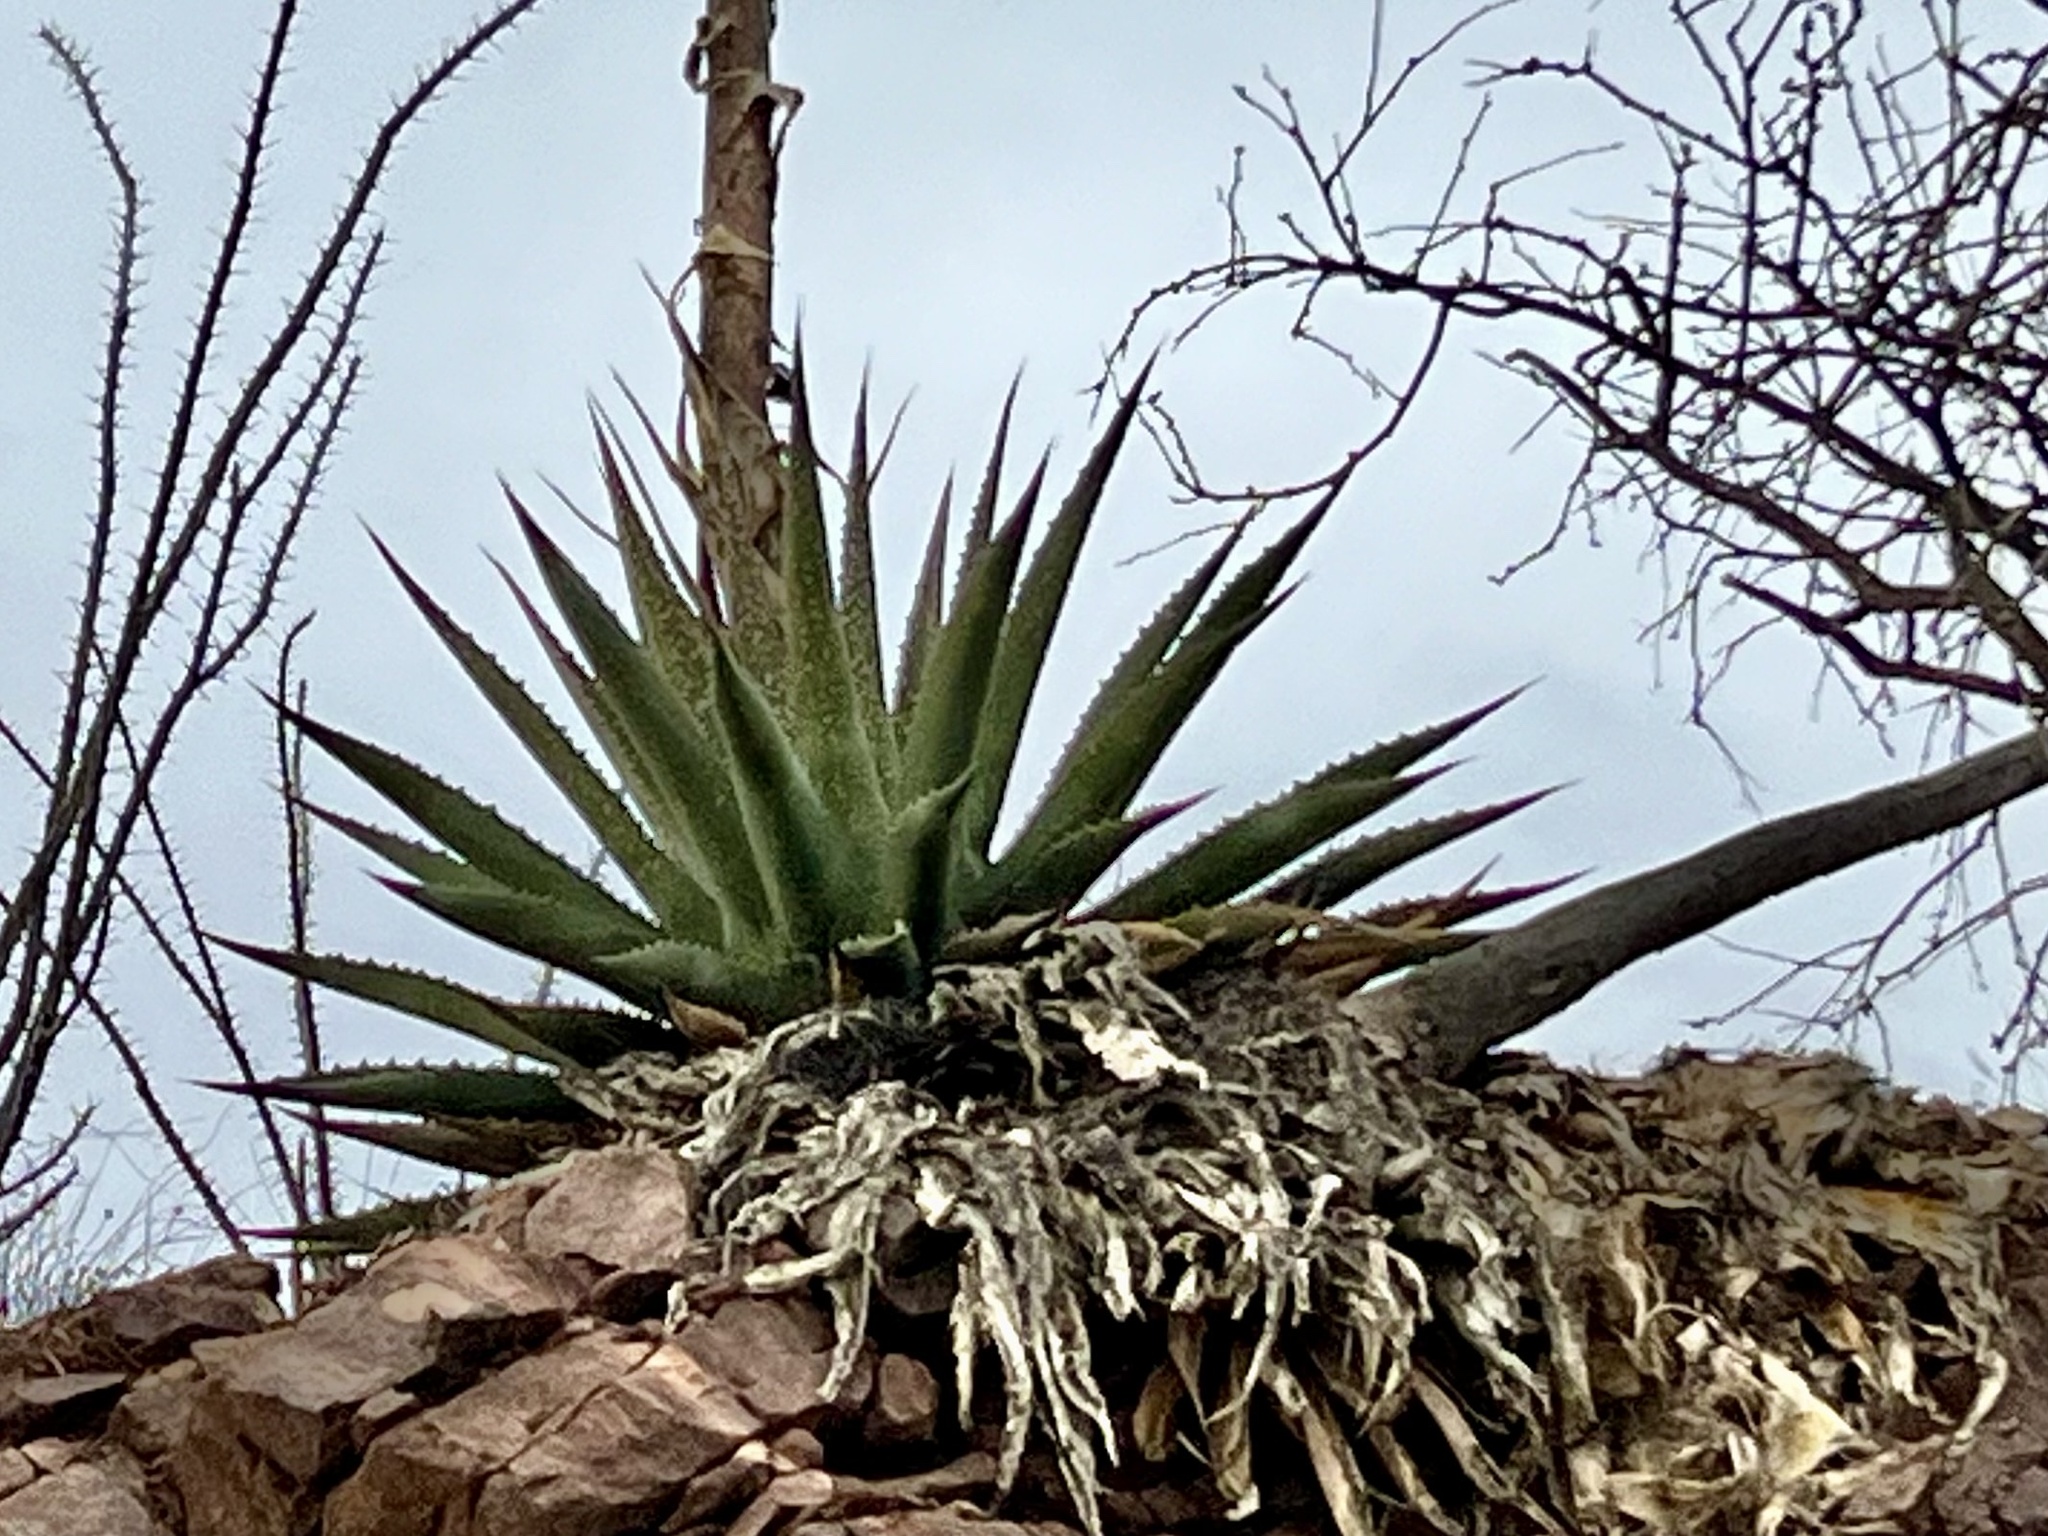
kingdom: Plantae
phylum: Tracheophyta
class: Liliopsida
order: Asparagales
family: Asparagaceae
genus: Agave
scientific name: Agave palmeri
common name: Palmer agave
